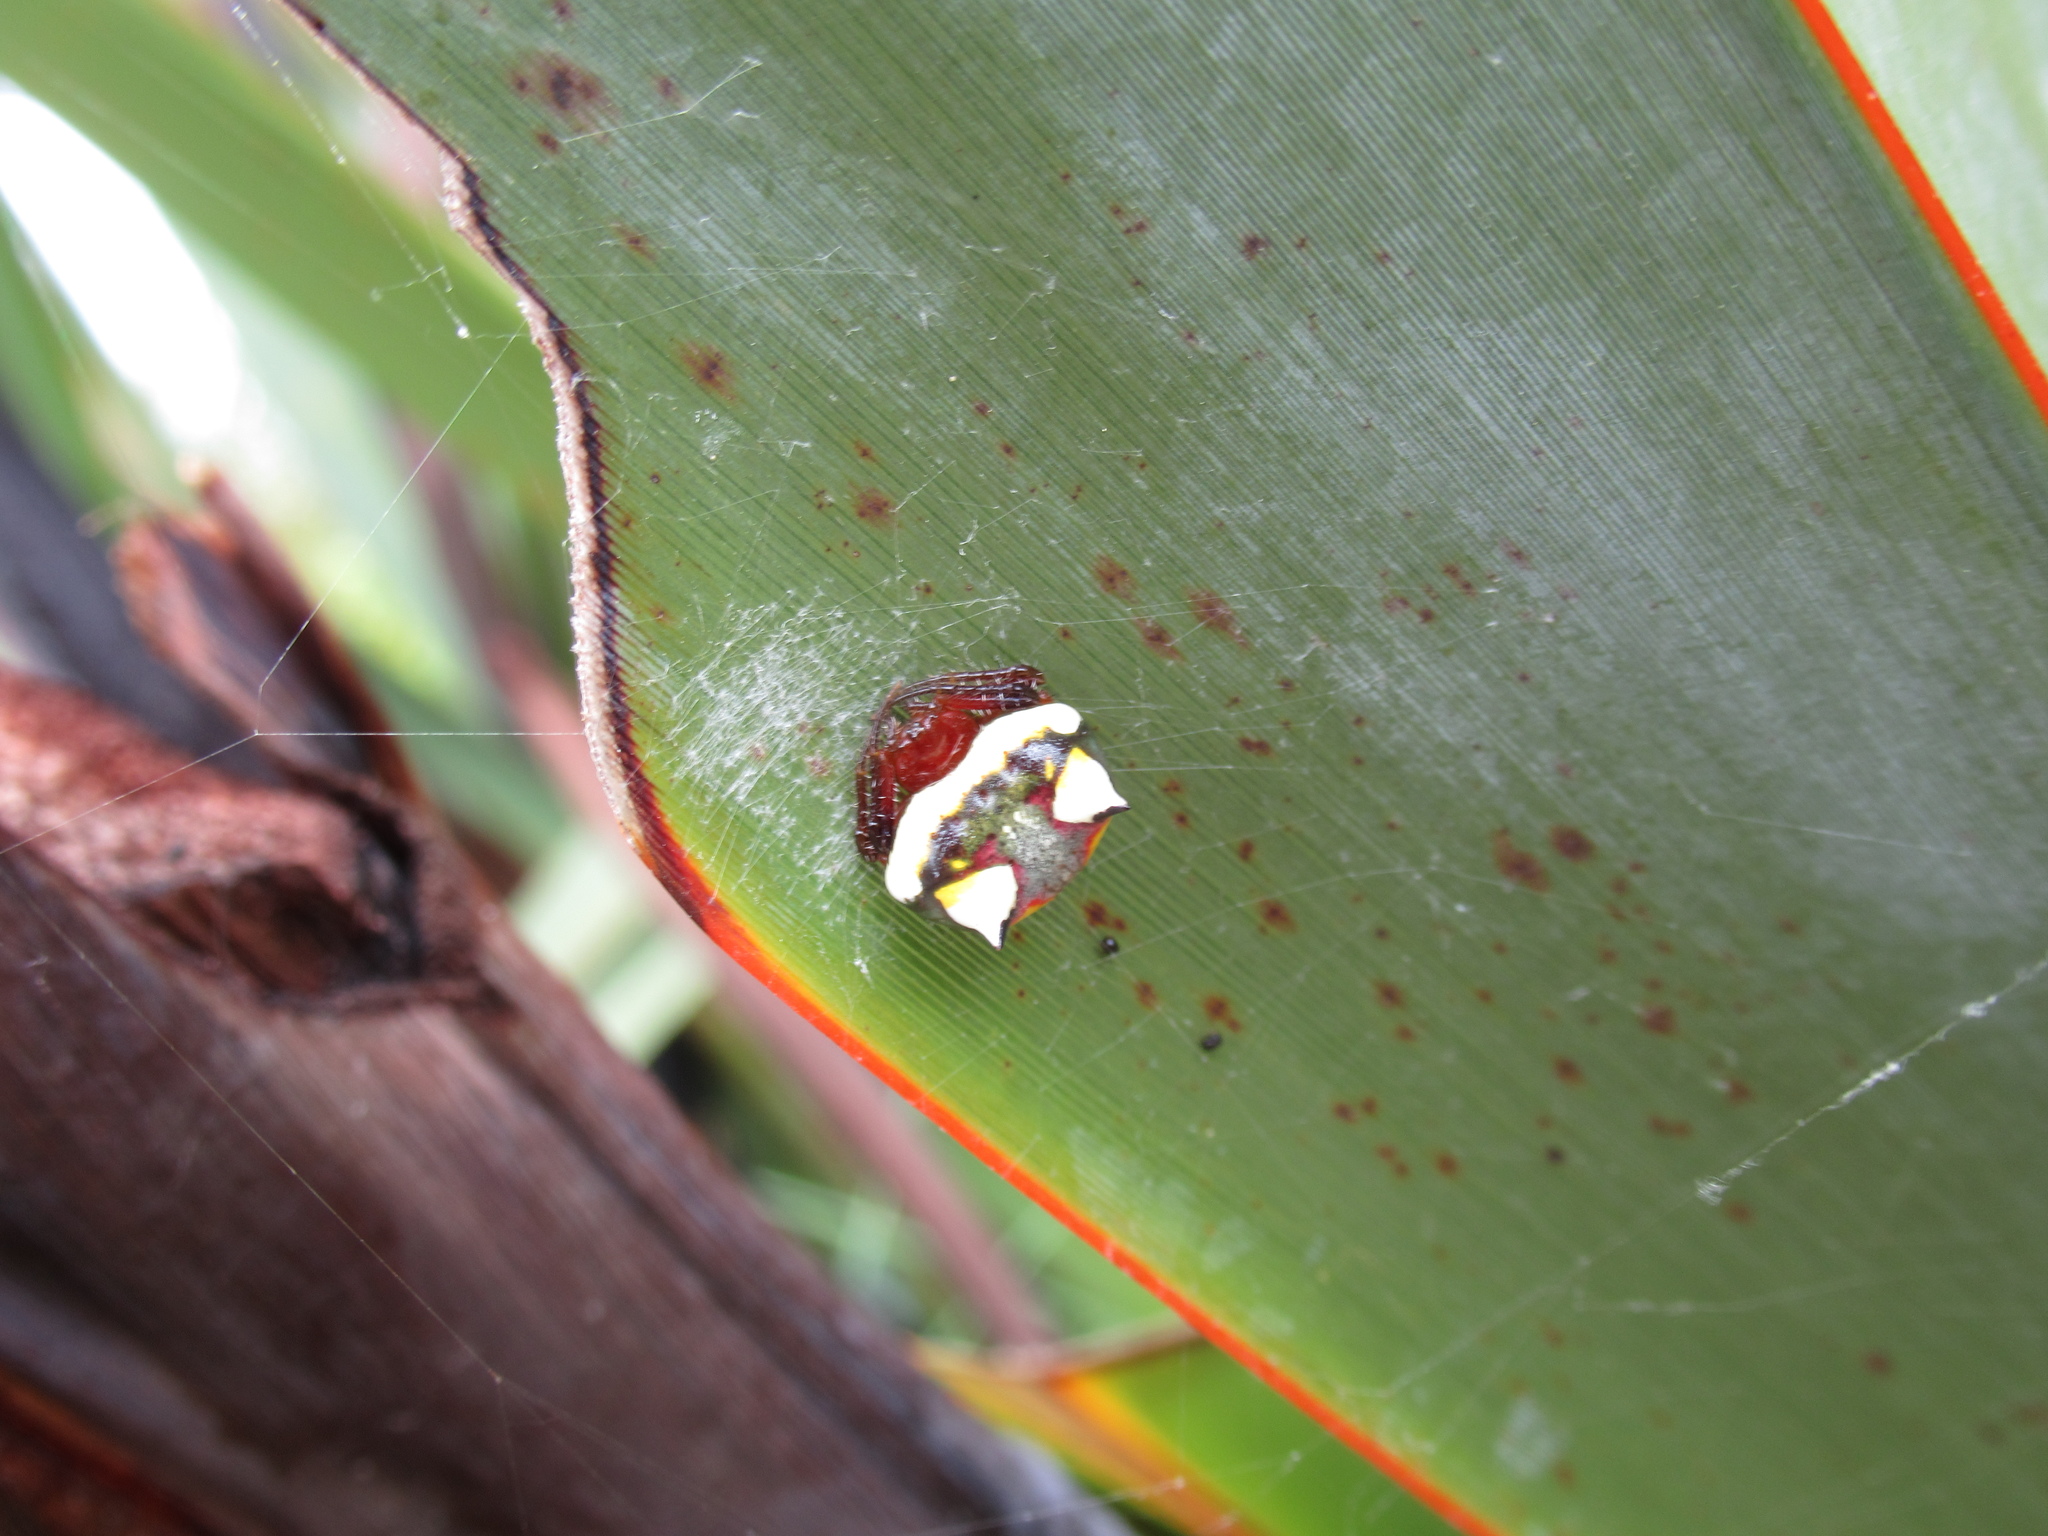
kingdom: Animalia
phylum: Arthropoda
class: Arachnida
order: Araneae
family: Araneidae
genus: Poecilopachys
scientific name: Poecilopachys australasia
